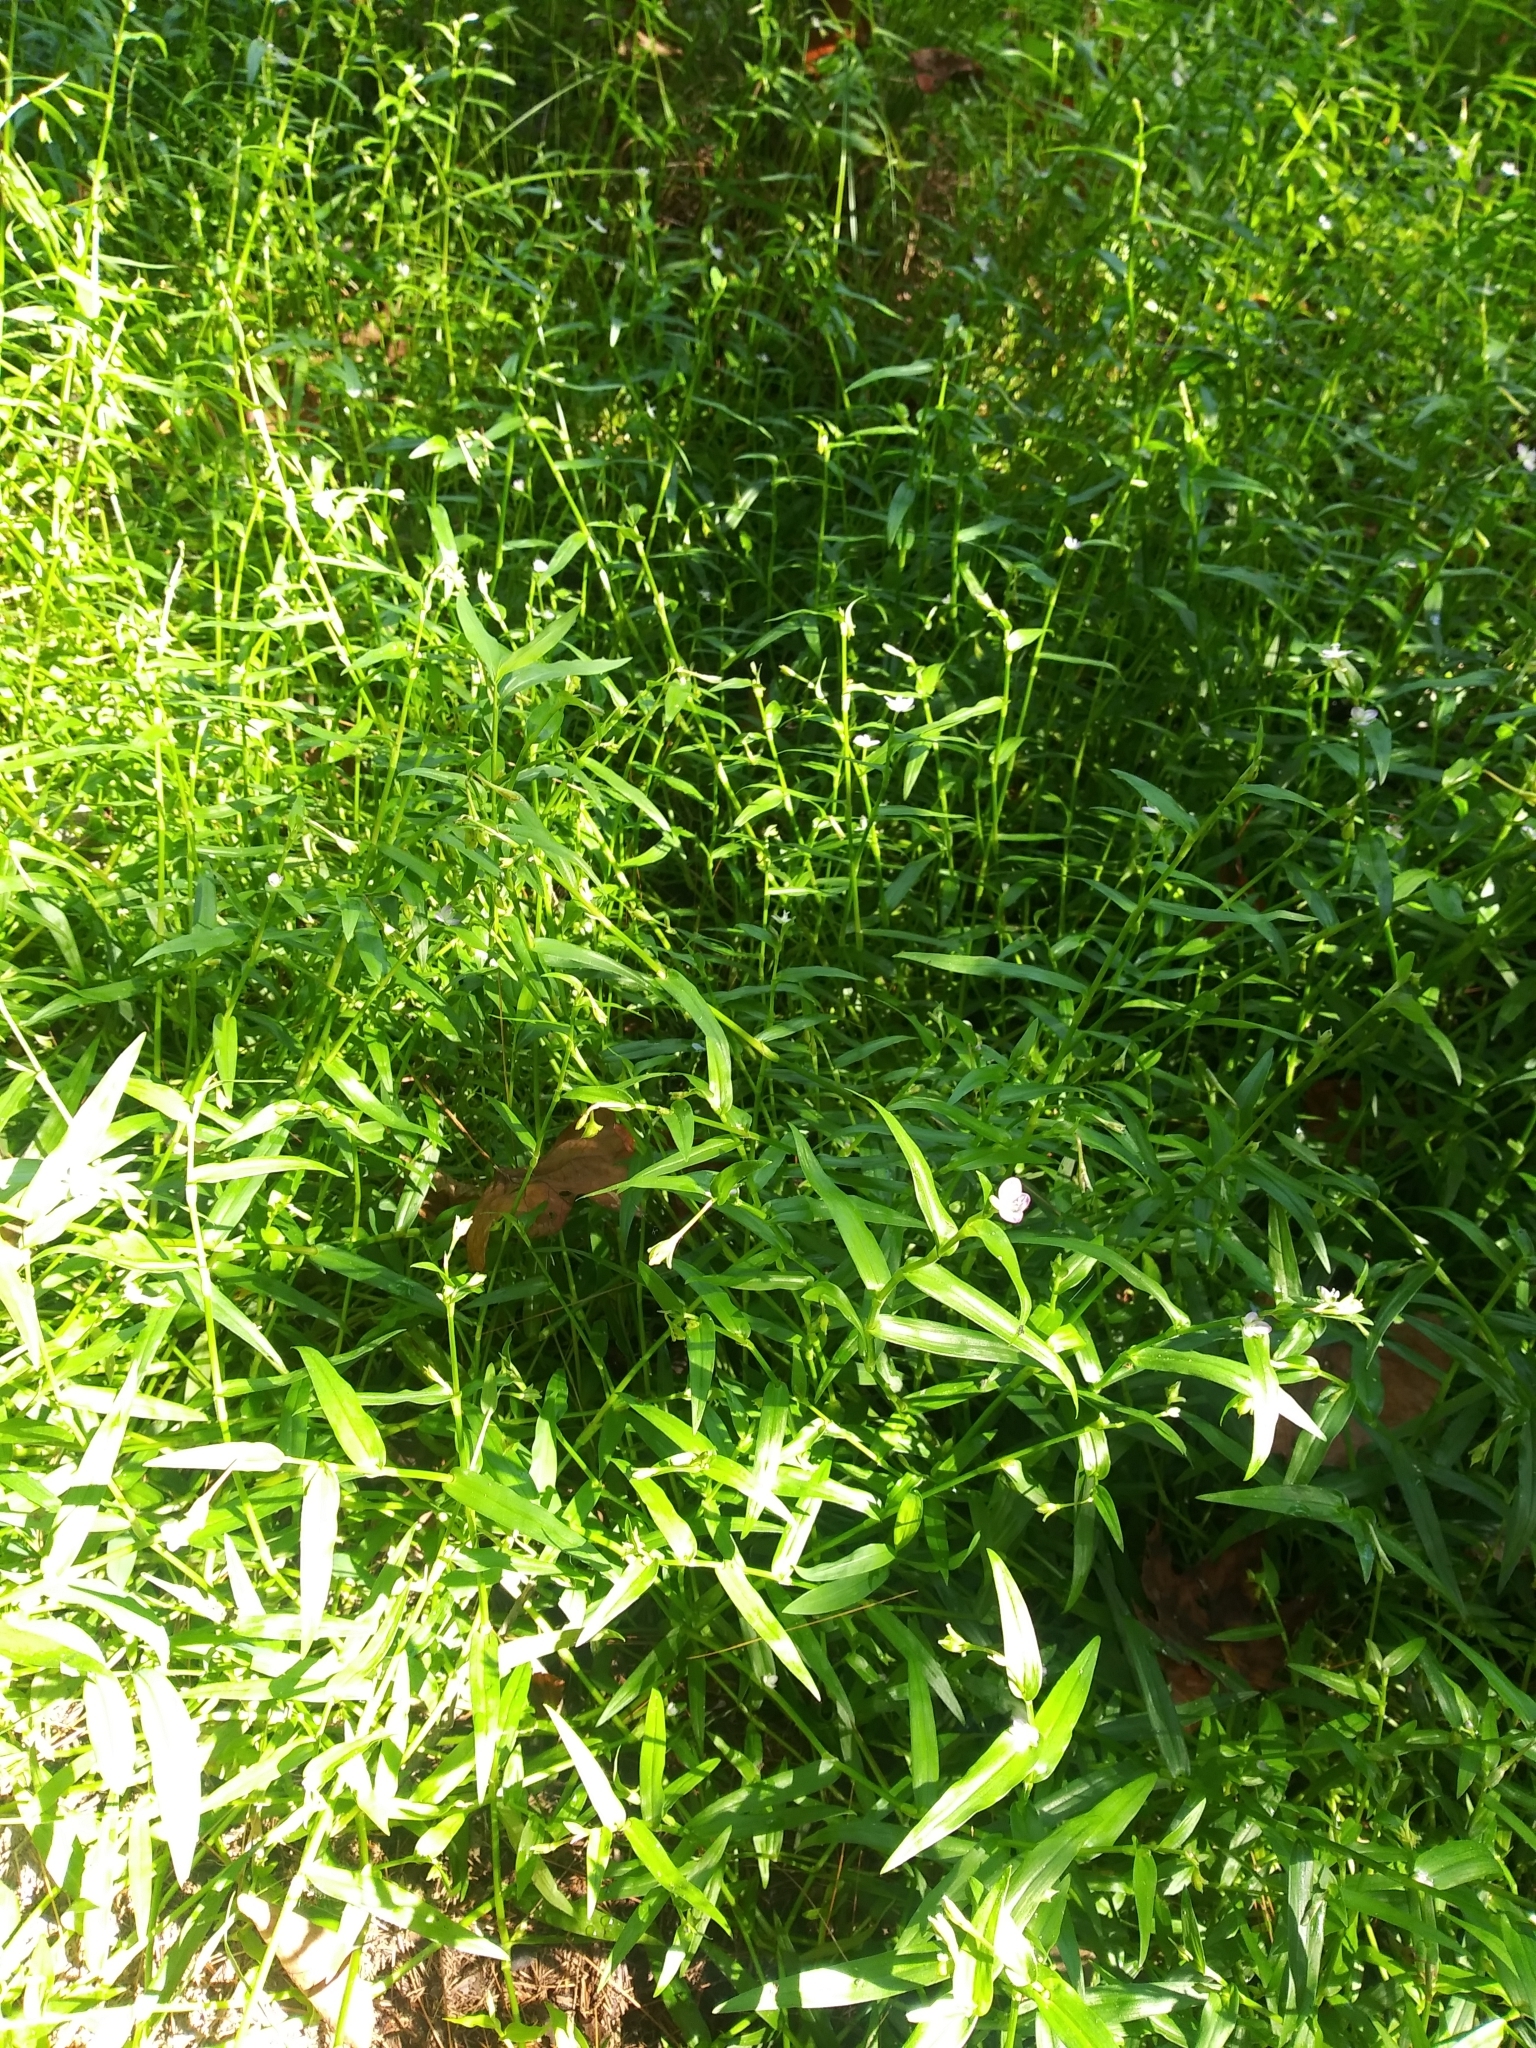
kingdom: Plantae
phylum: Tracheophyta
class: Liliopsida
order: Commelinales
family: Commelinaceae
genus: Murdannia
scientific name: Murdannia keisak
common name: Wartremoving herb
